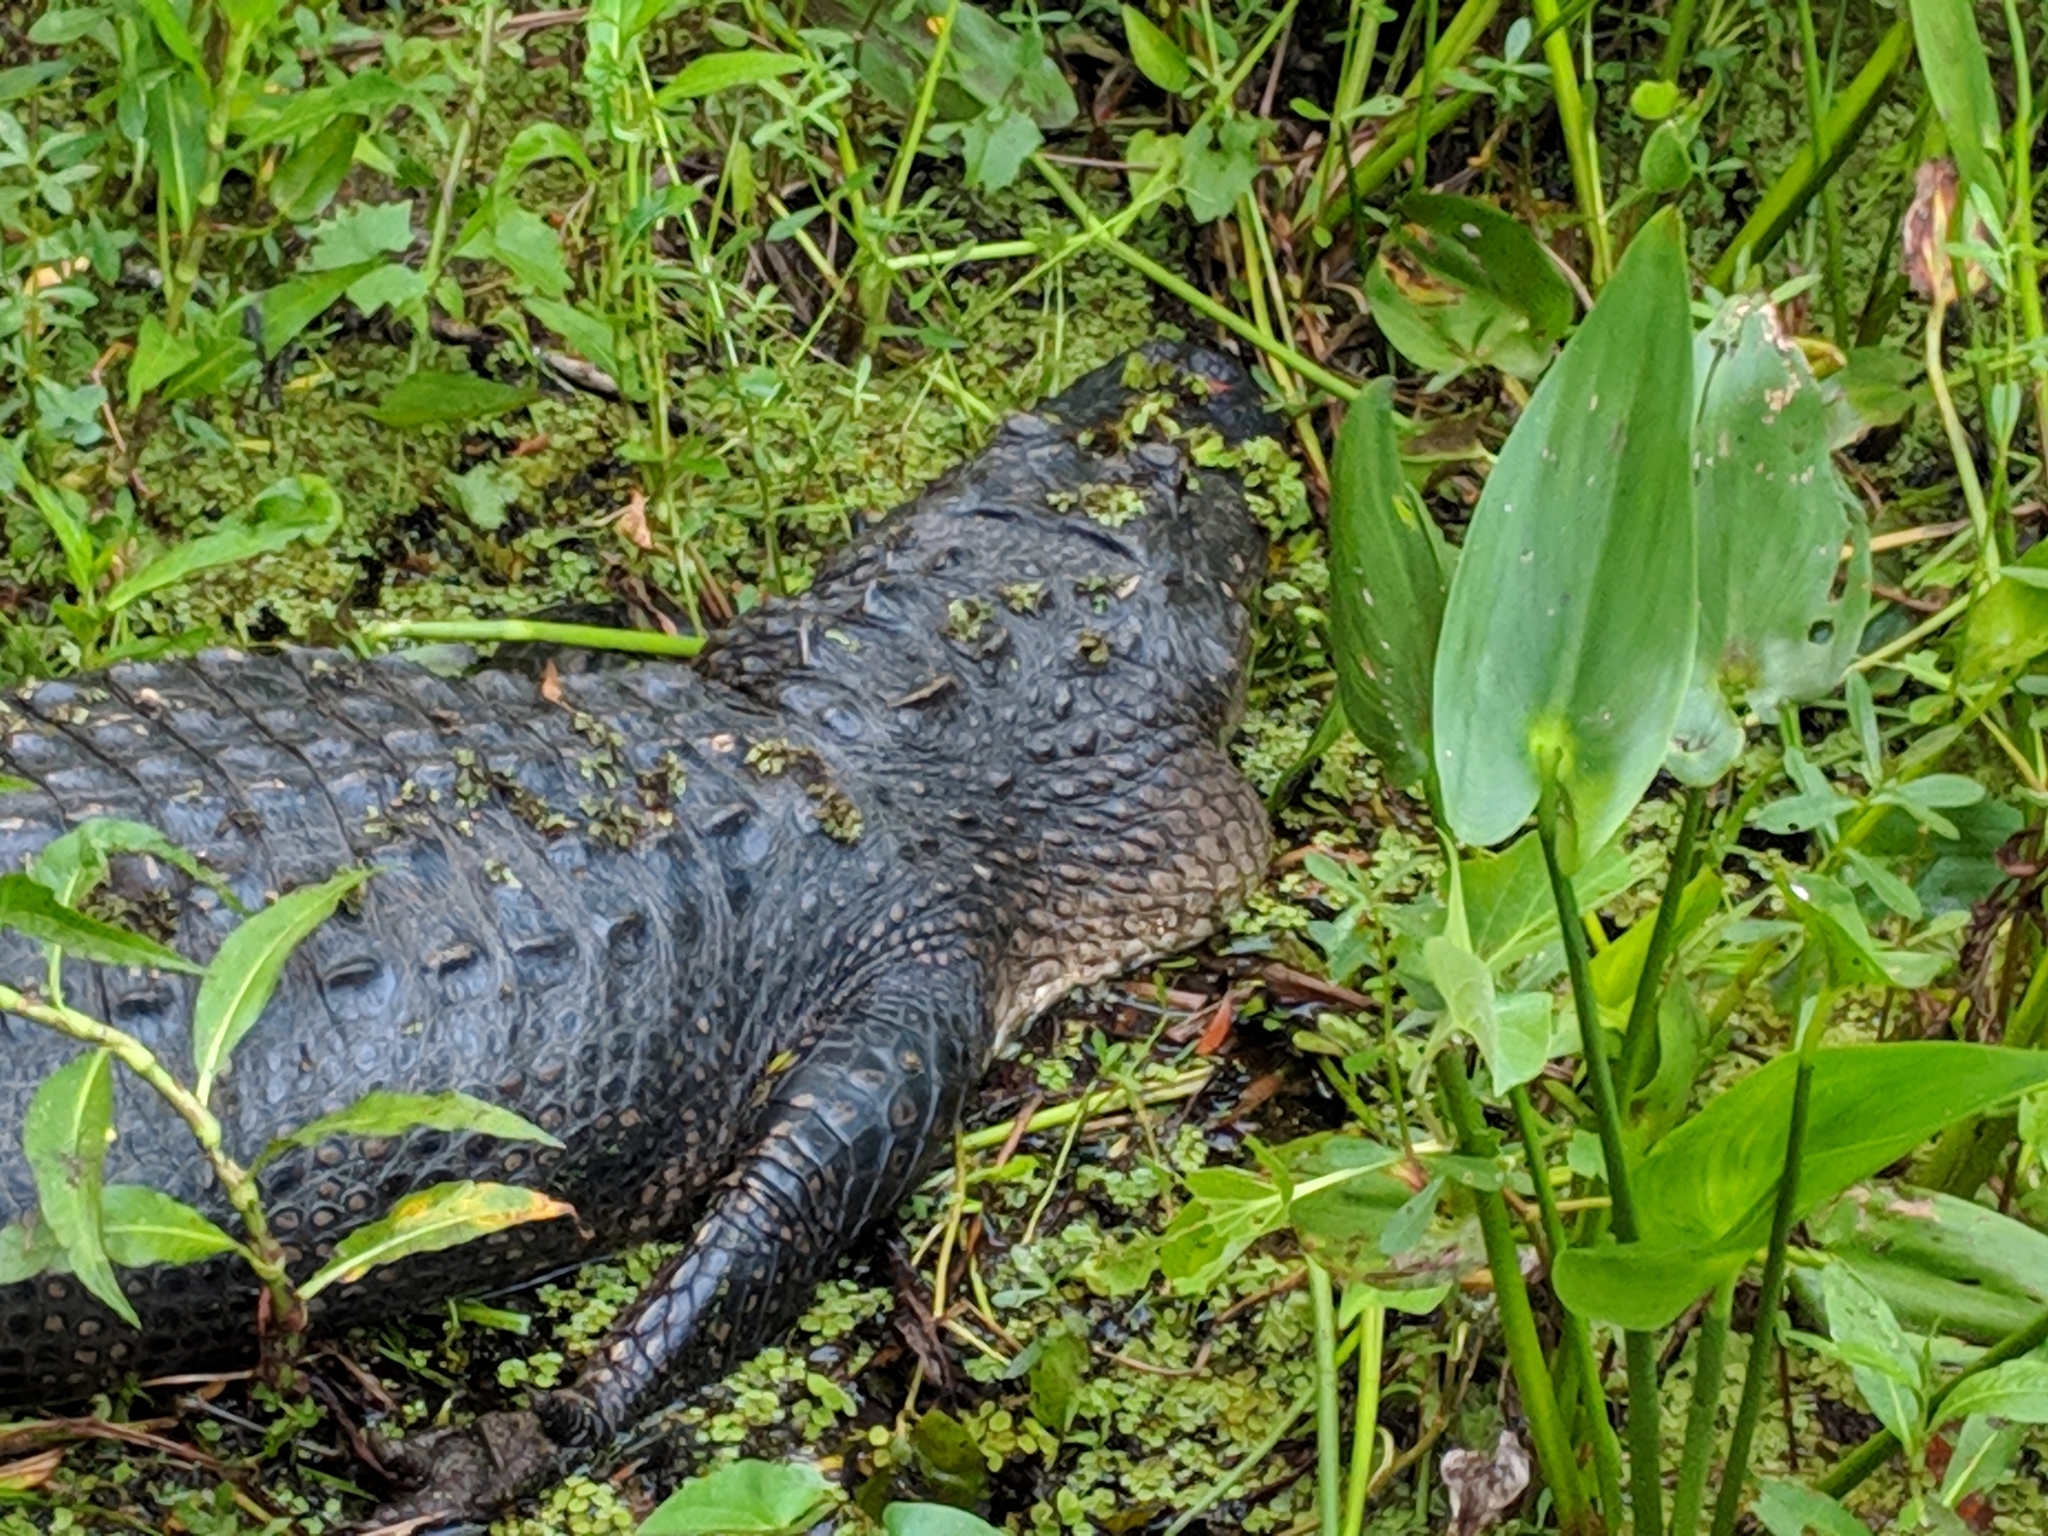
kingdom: Animalia
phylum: Chordata
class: Crocodylia
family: Alligatoridae
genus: Alligator
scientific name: Alligator mississippiensis
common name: American alligator
